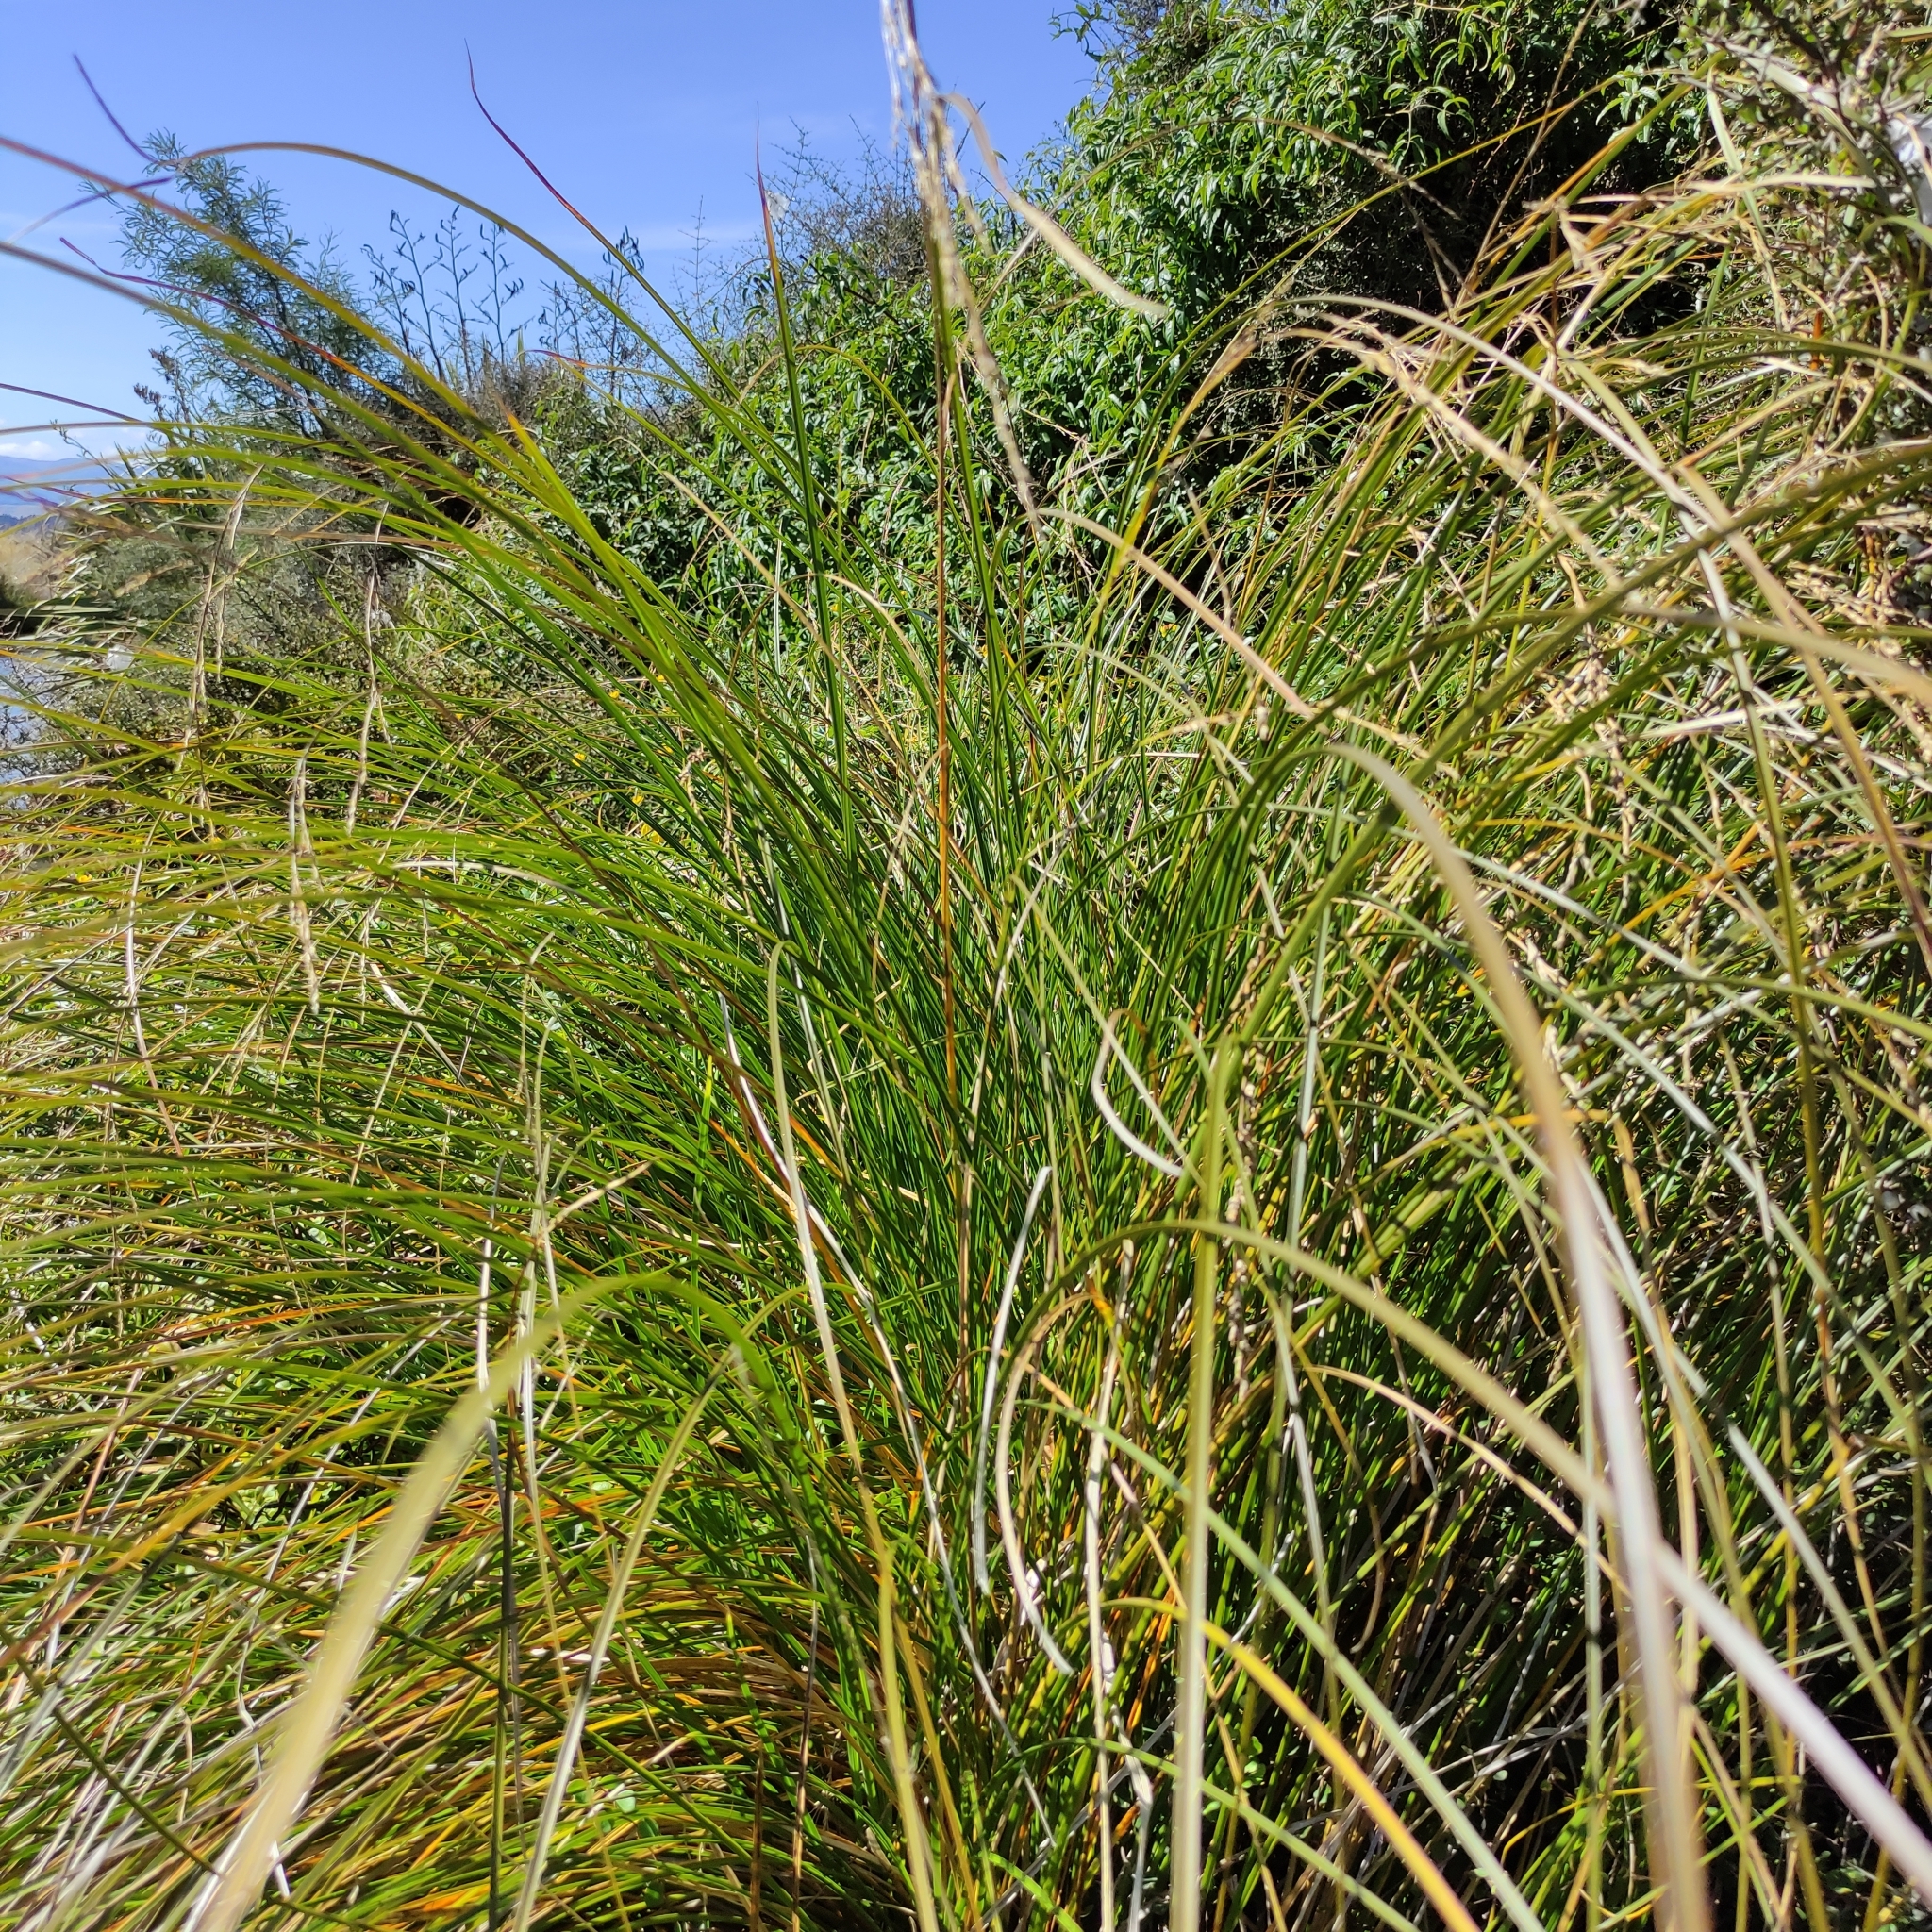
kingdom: Plantae
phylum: Tracheophyta
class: Liliopsida
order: Poales
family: Cyperaceae
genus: Carex
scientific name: Carex secta
